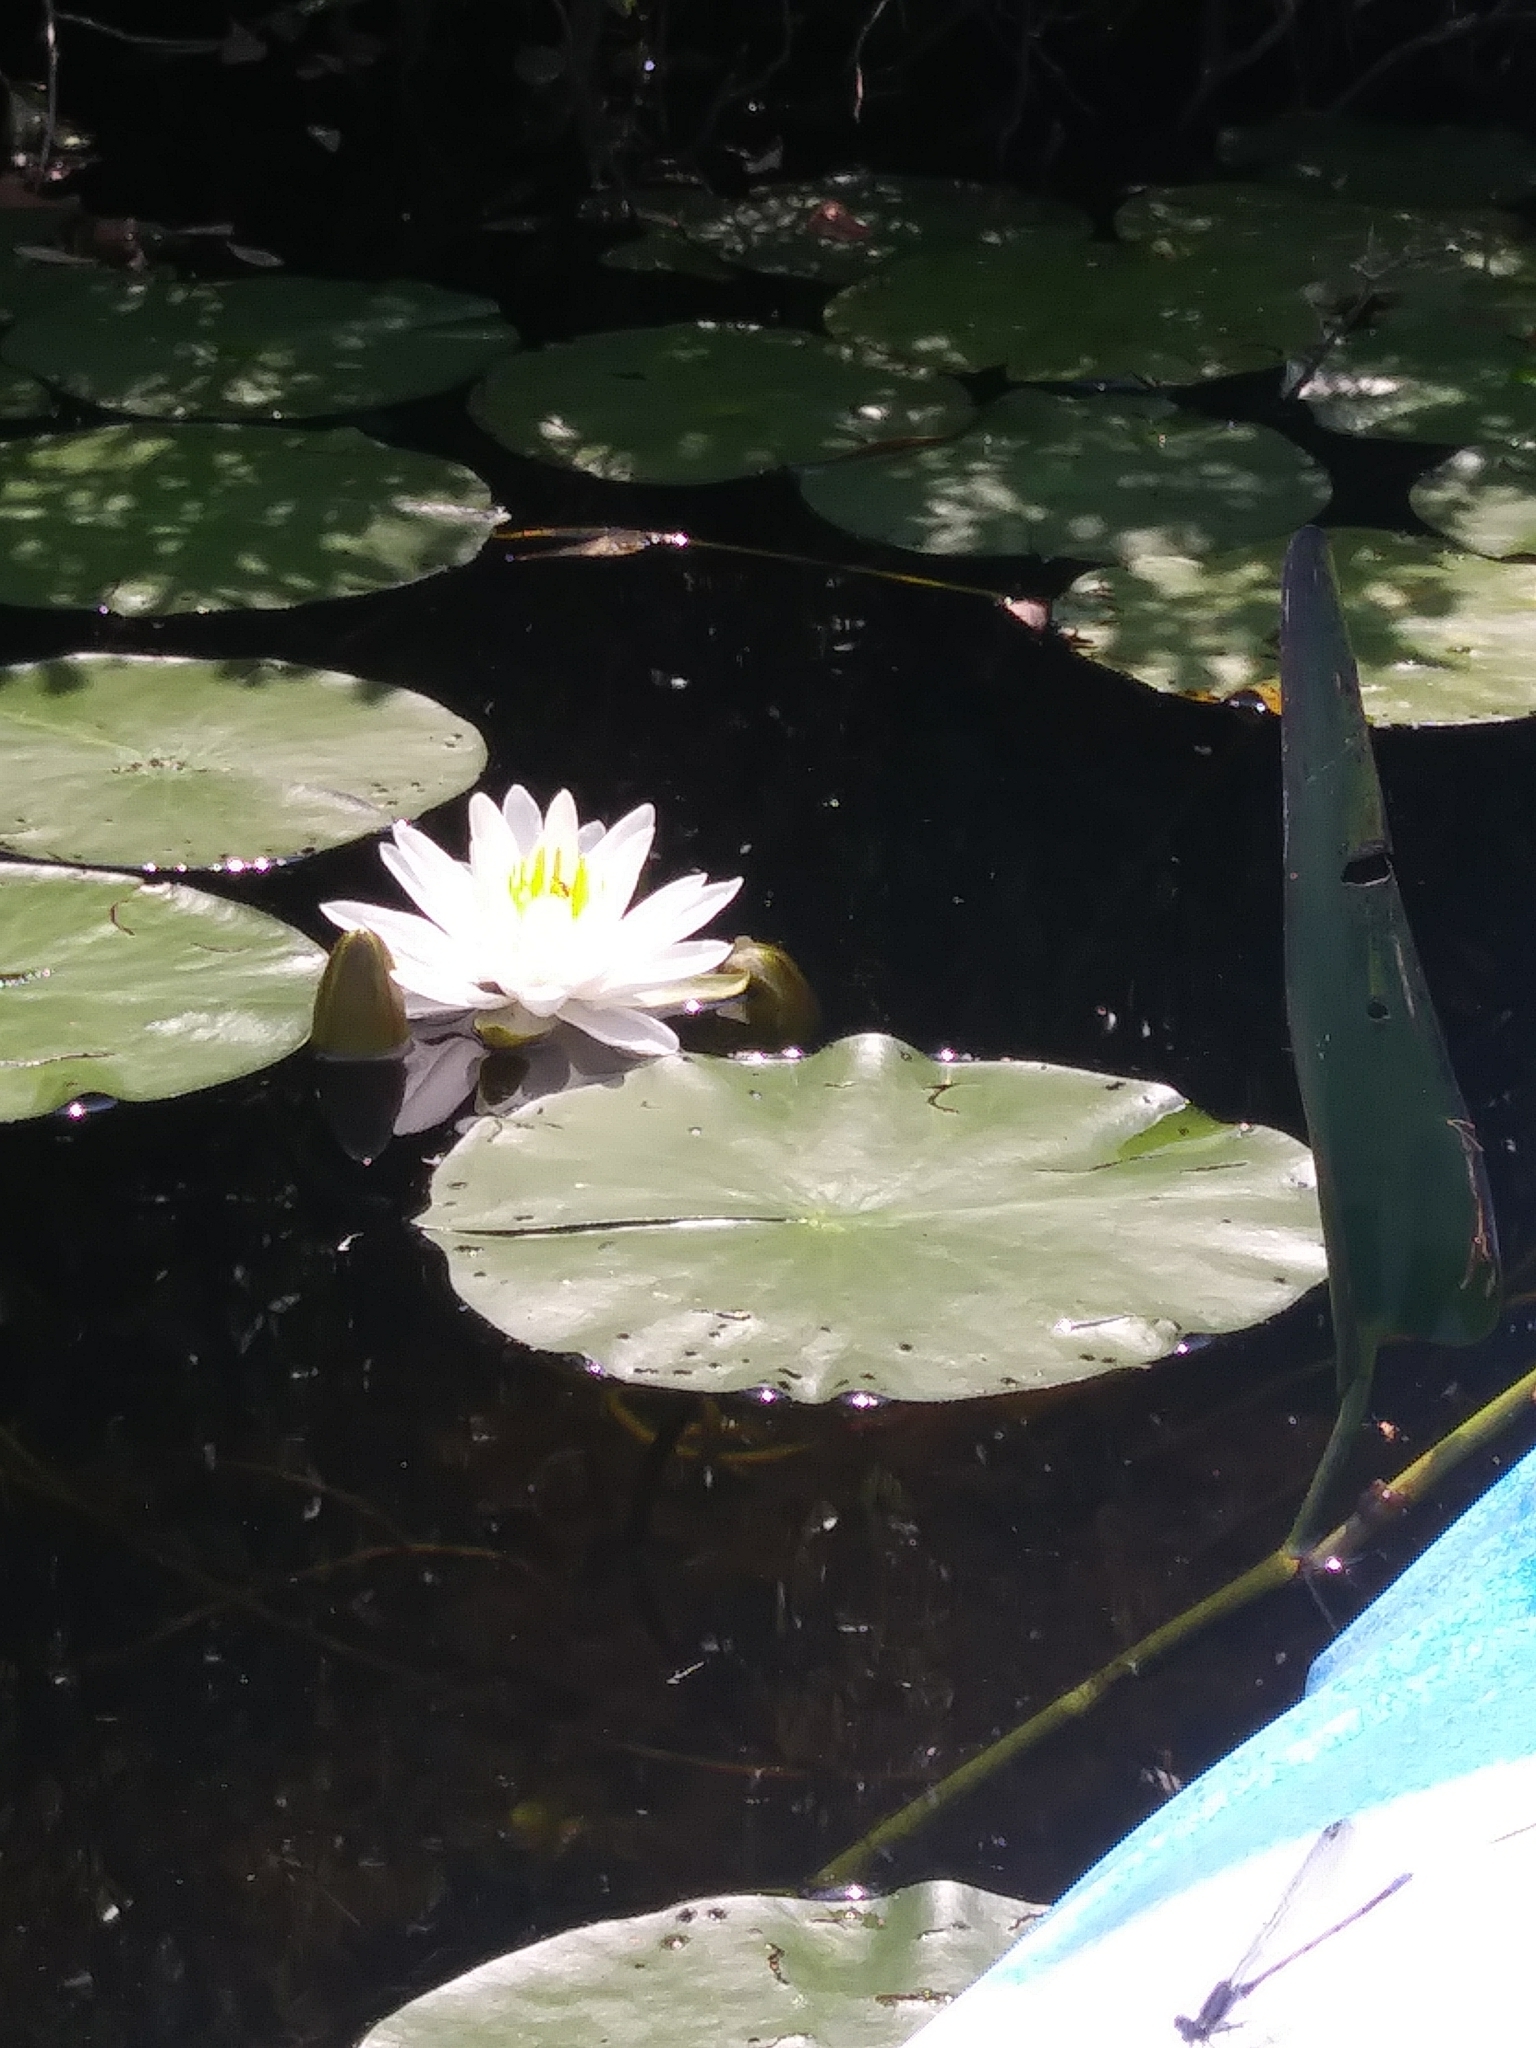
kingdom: Plantae
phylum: Tracheophyta
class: Magnoliopsida
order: Nymphaeales
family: Nymphaeaceae
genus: Nymphaea
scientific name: Nymphaea odorata
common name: Fragrant water-lily
